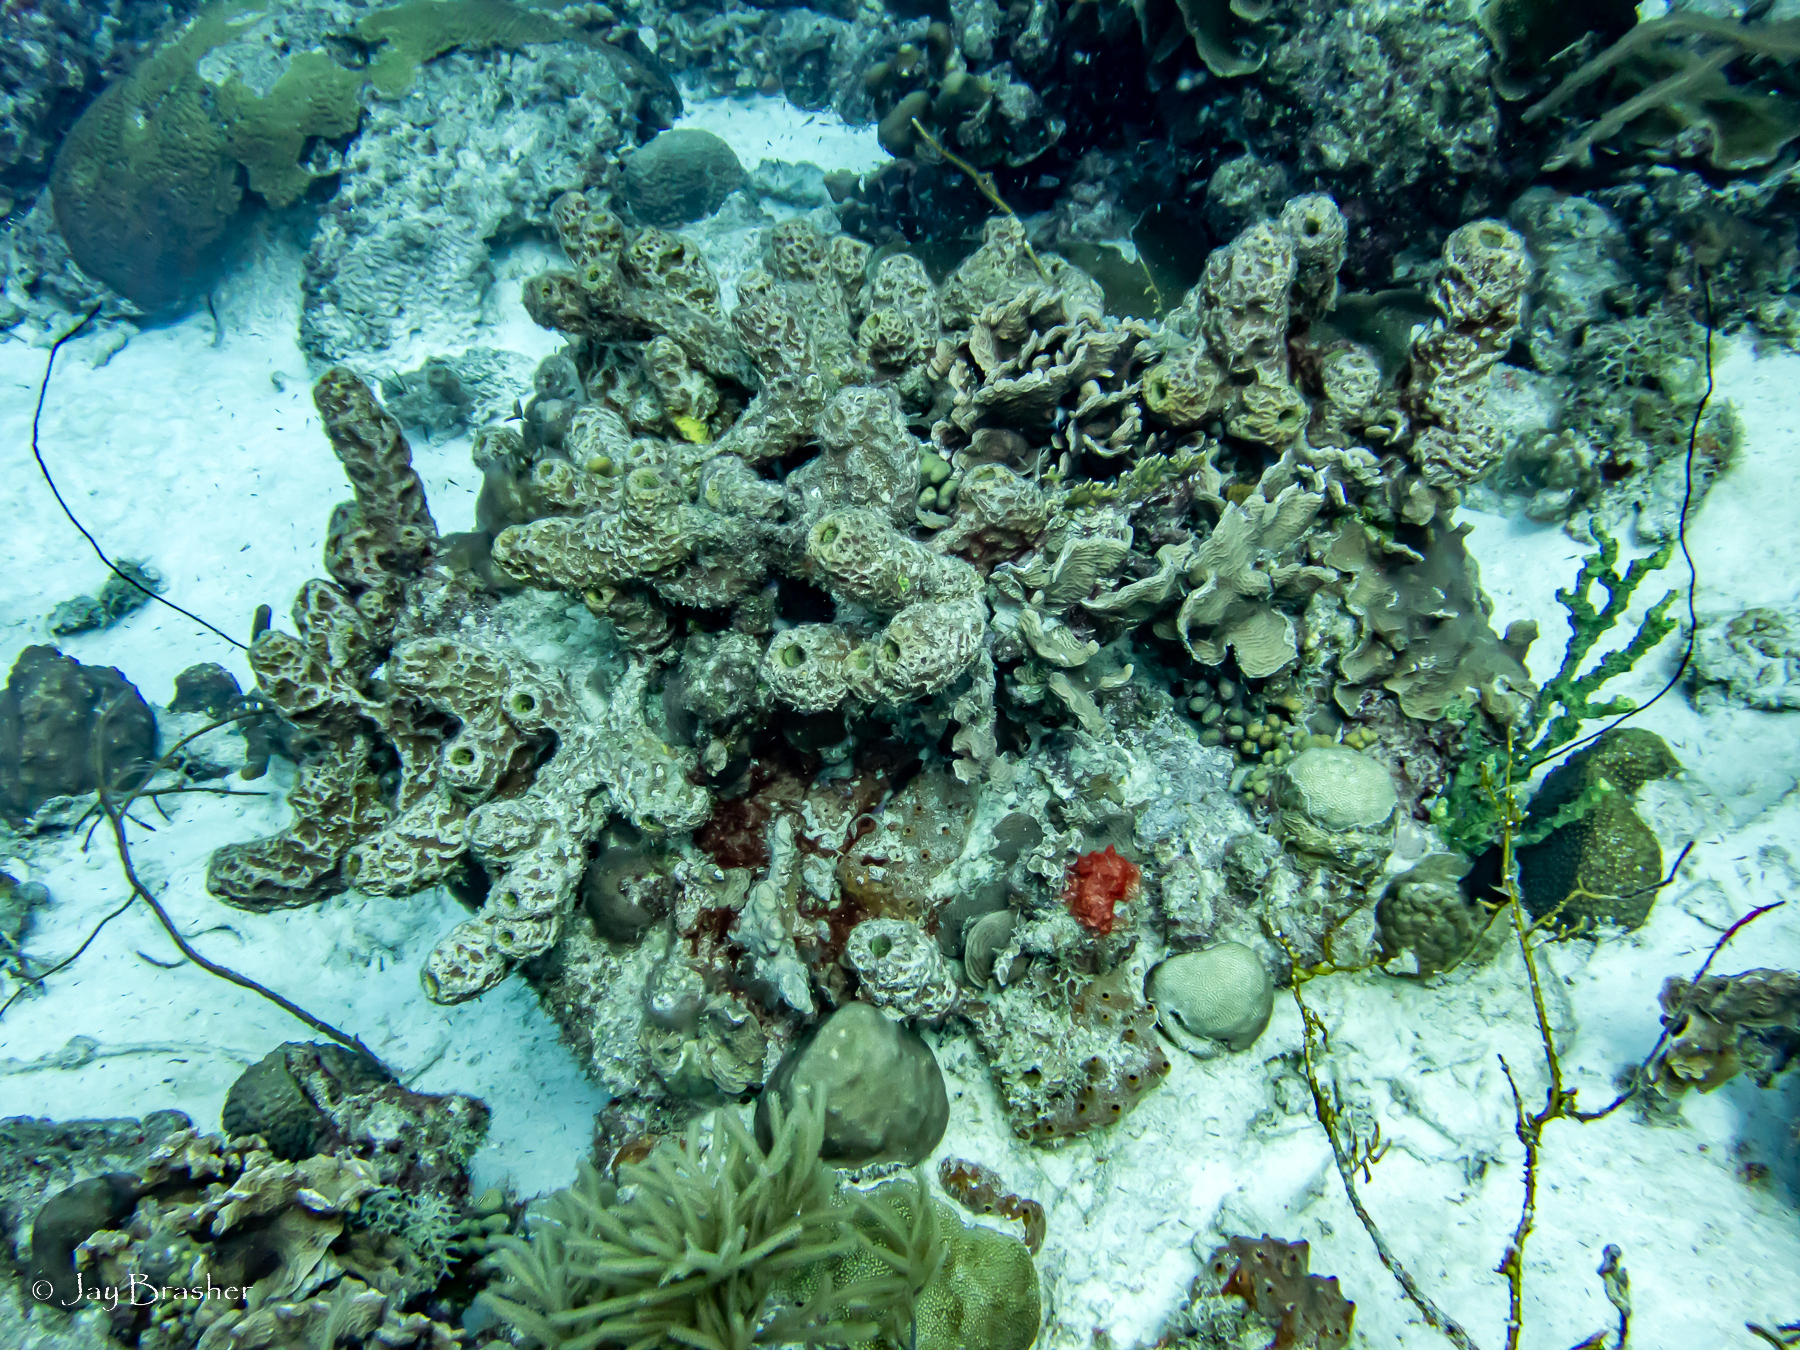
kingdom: Animalia
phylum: Porifera
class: Demospongiae
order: Verongiida
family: Aplysinidae
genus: Verongula
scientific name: Verongula rigida
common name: Pitted sponge
